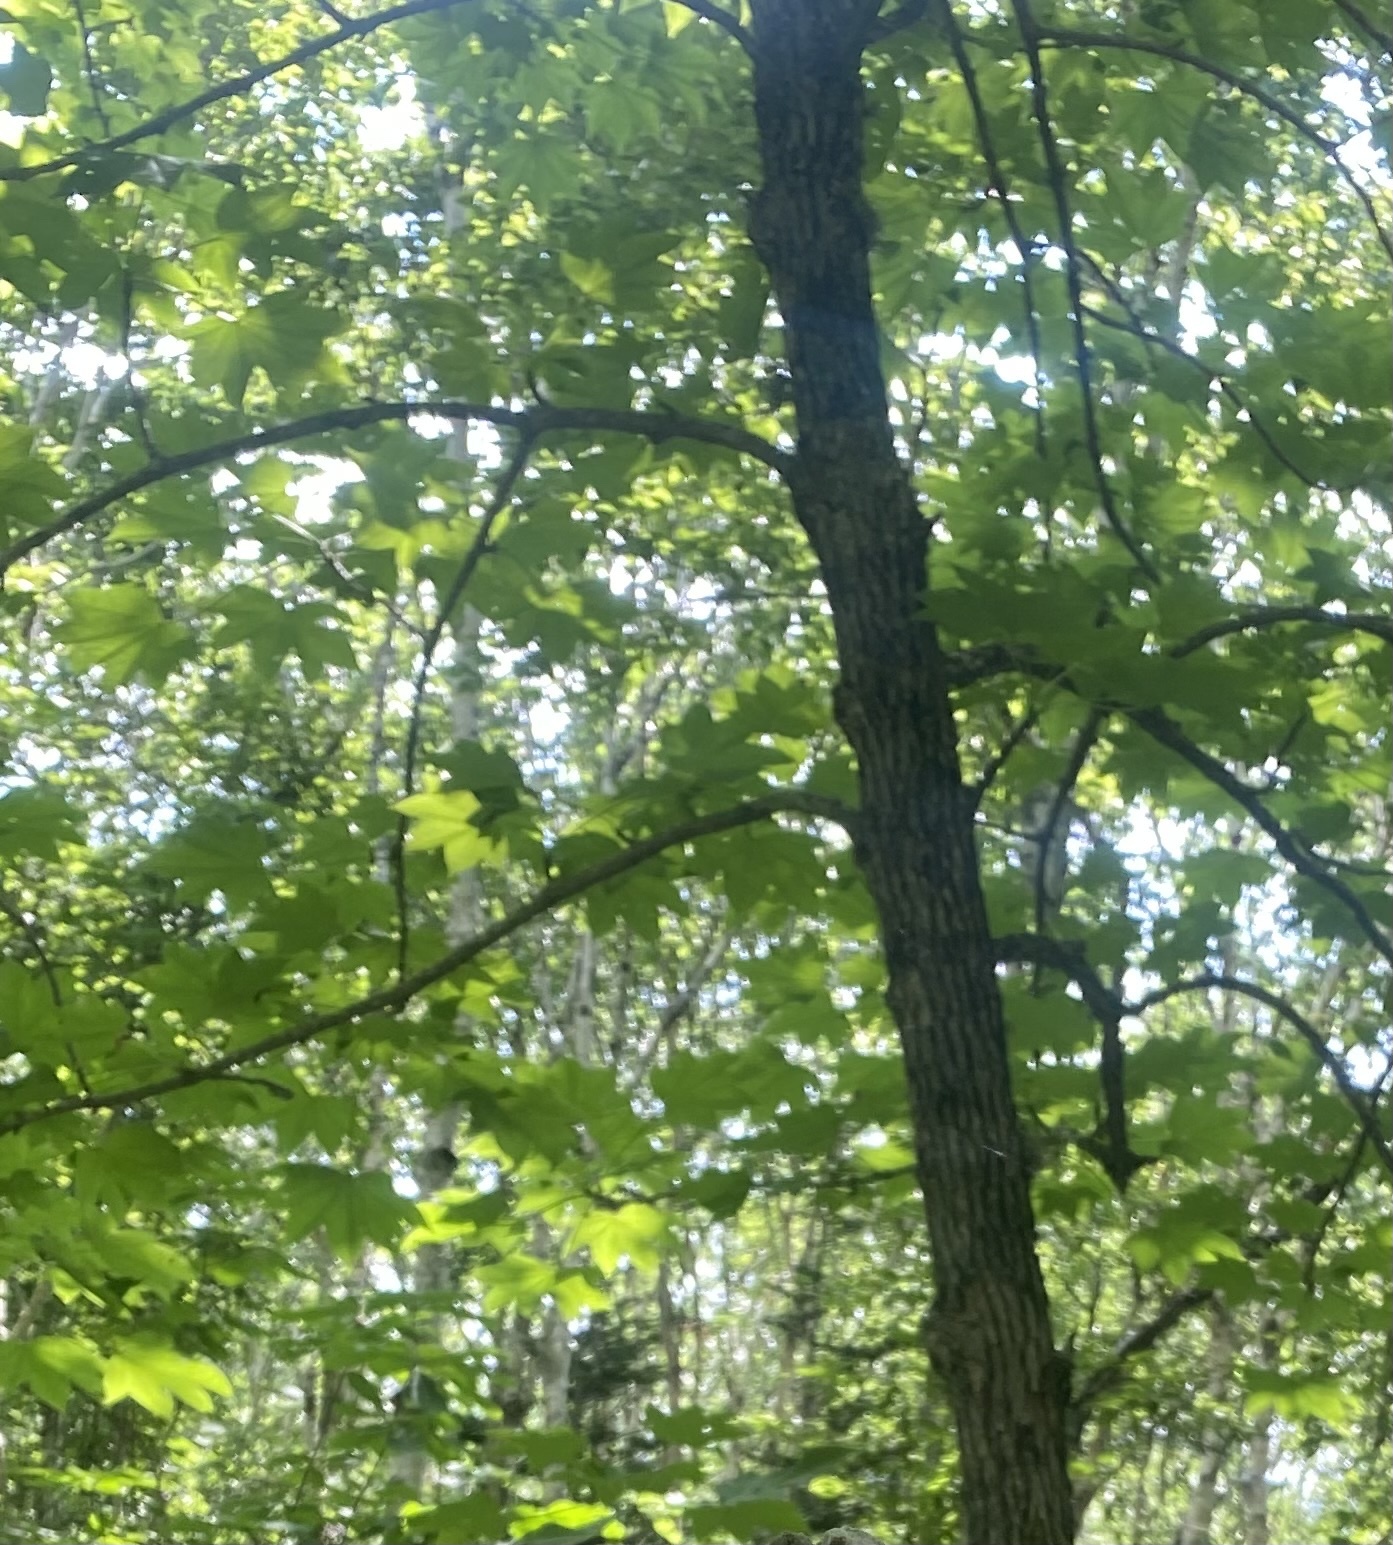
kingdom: Plantae
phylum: Tracheophyta
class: Magnoliopsida
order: Apiales
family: Araliaceae
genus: Kalopanax
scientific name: Kalopanax septemlobus
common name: Castor aralia
